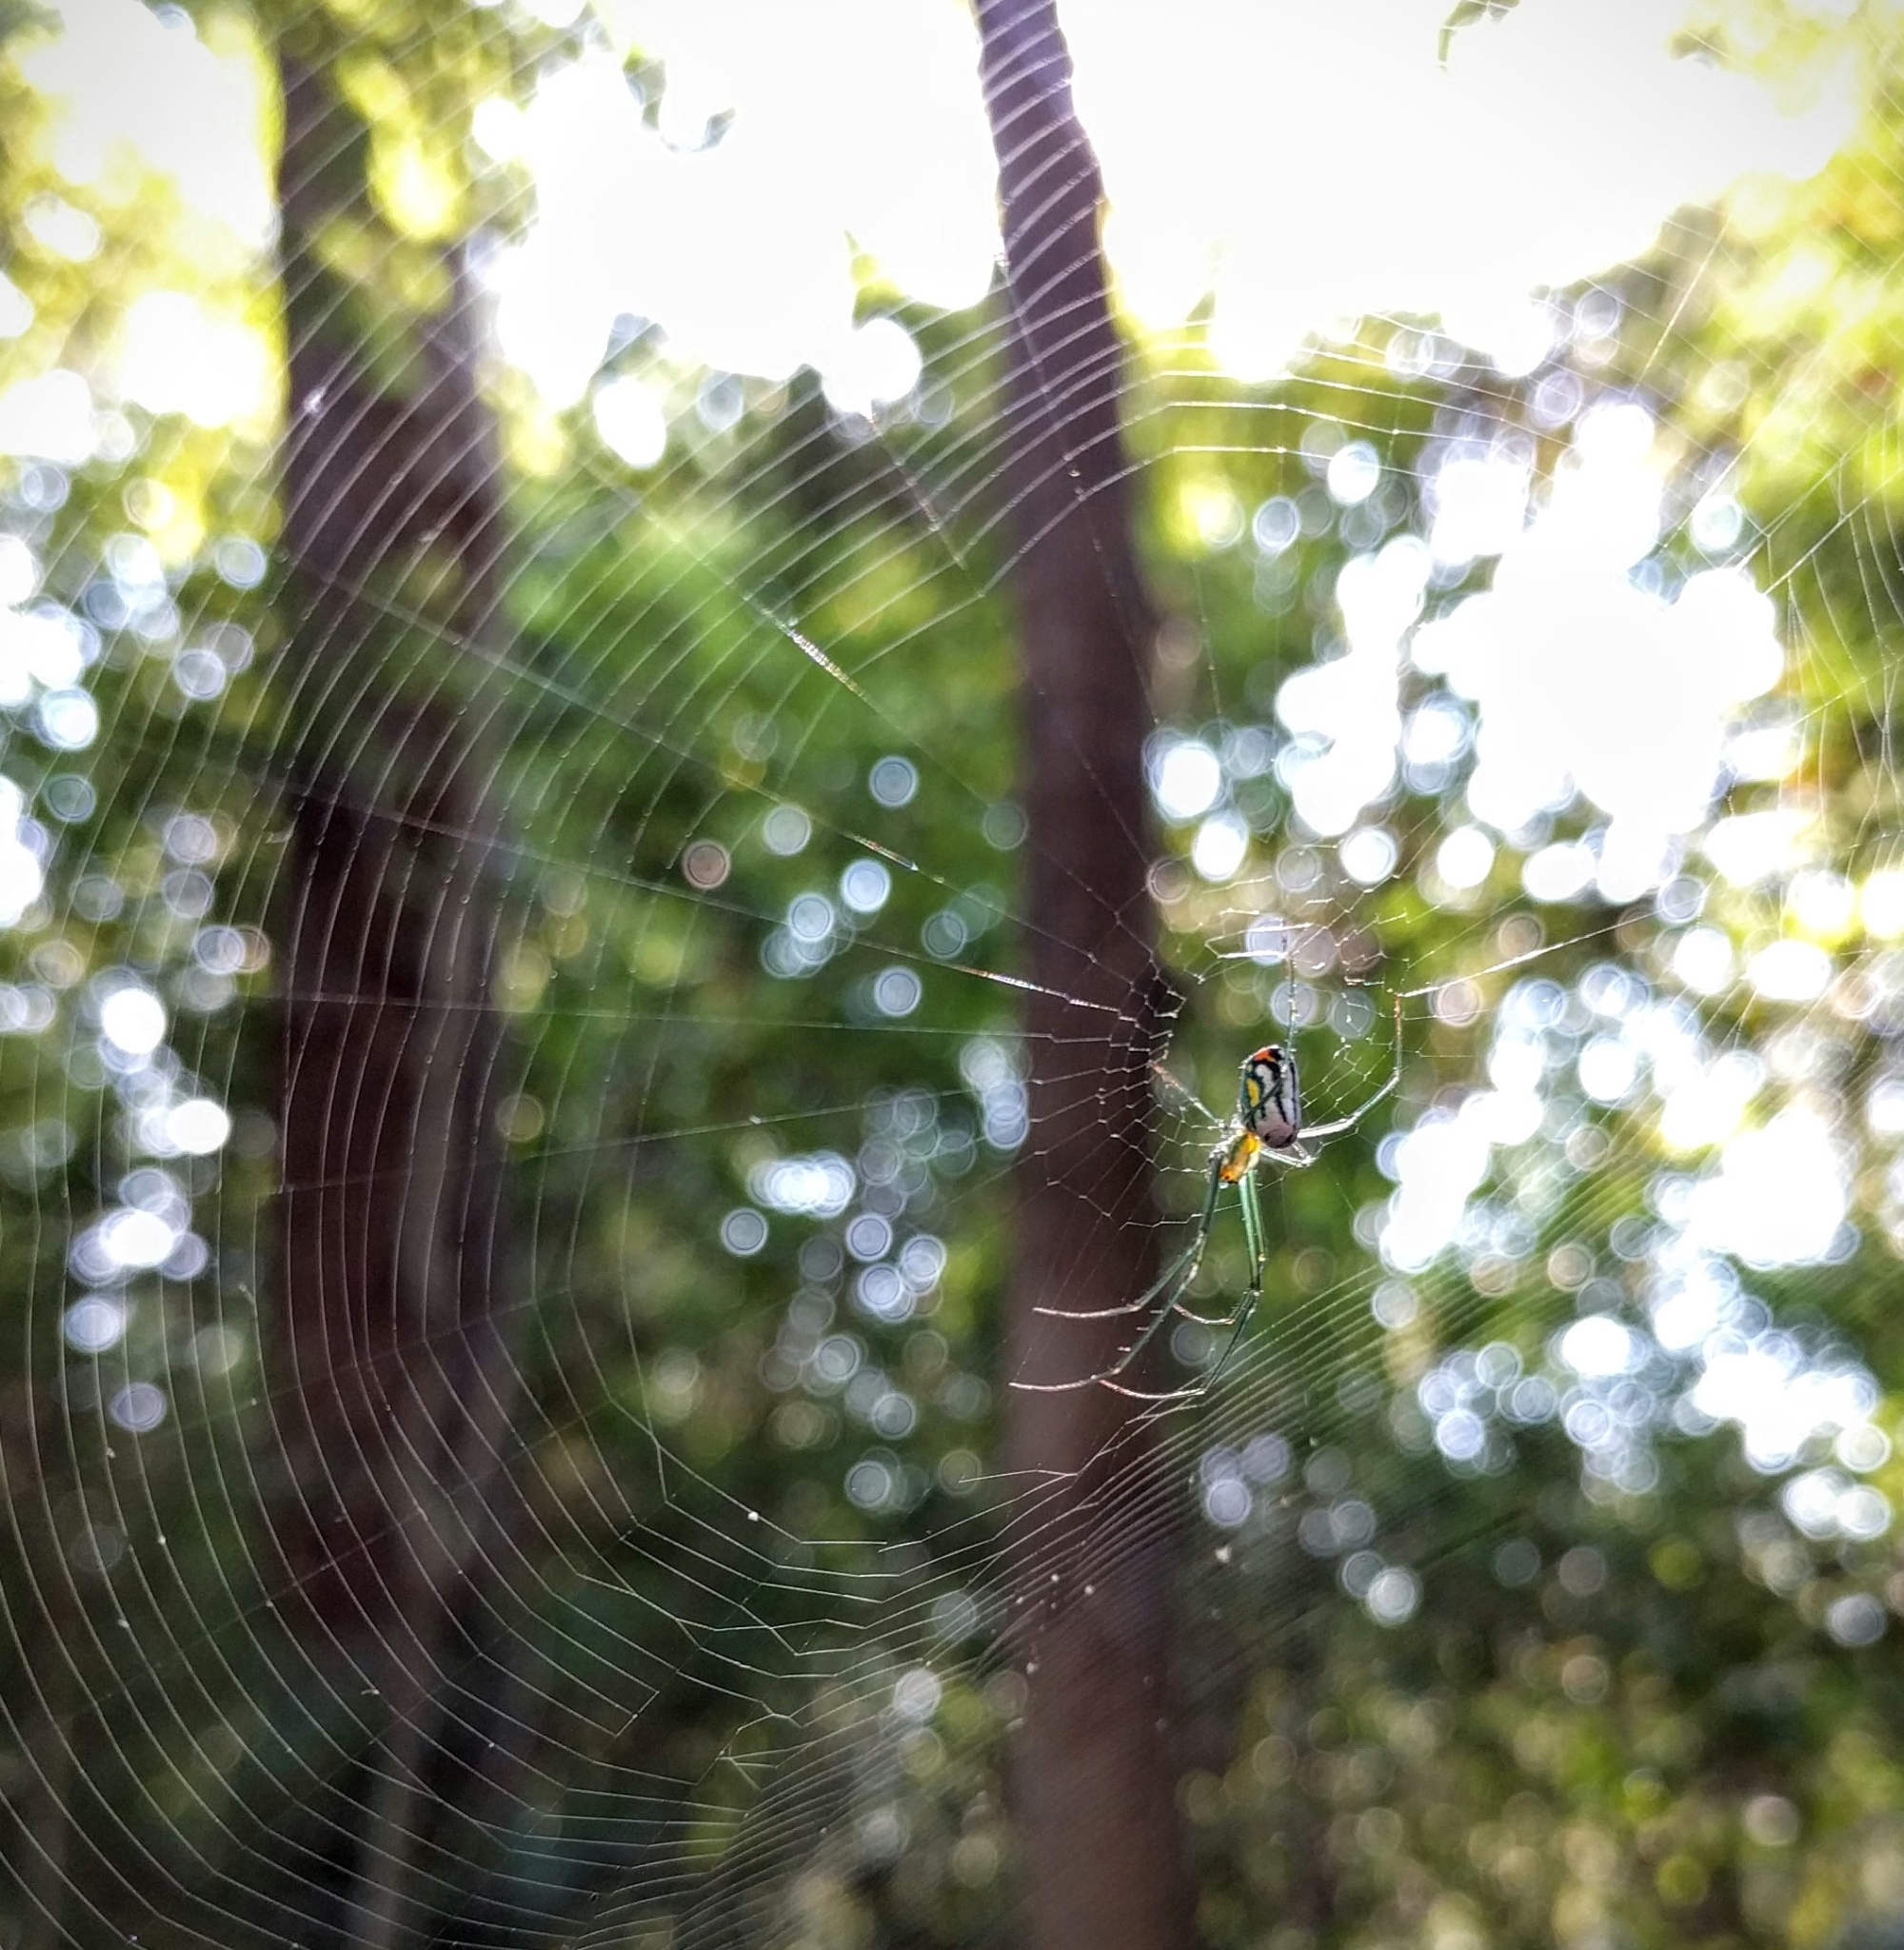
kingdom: Animalia
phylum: Arthropoda
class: Arachnida
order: Araneae
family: Tetragnathidae
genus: Leucauge
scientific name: Leucauge argyrobapta
